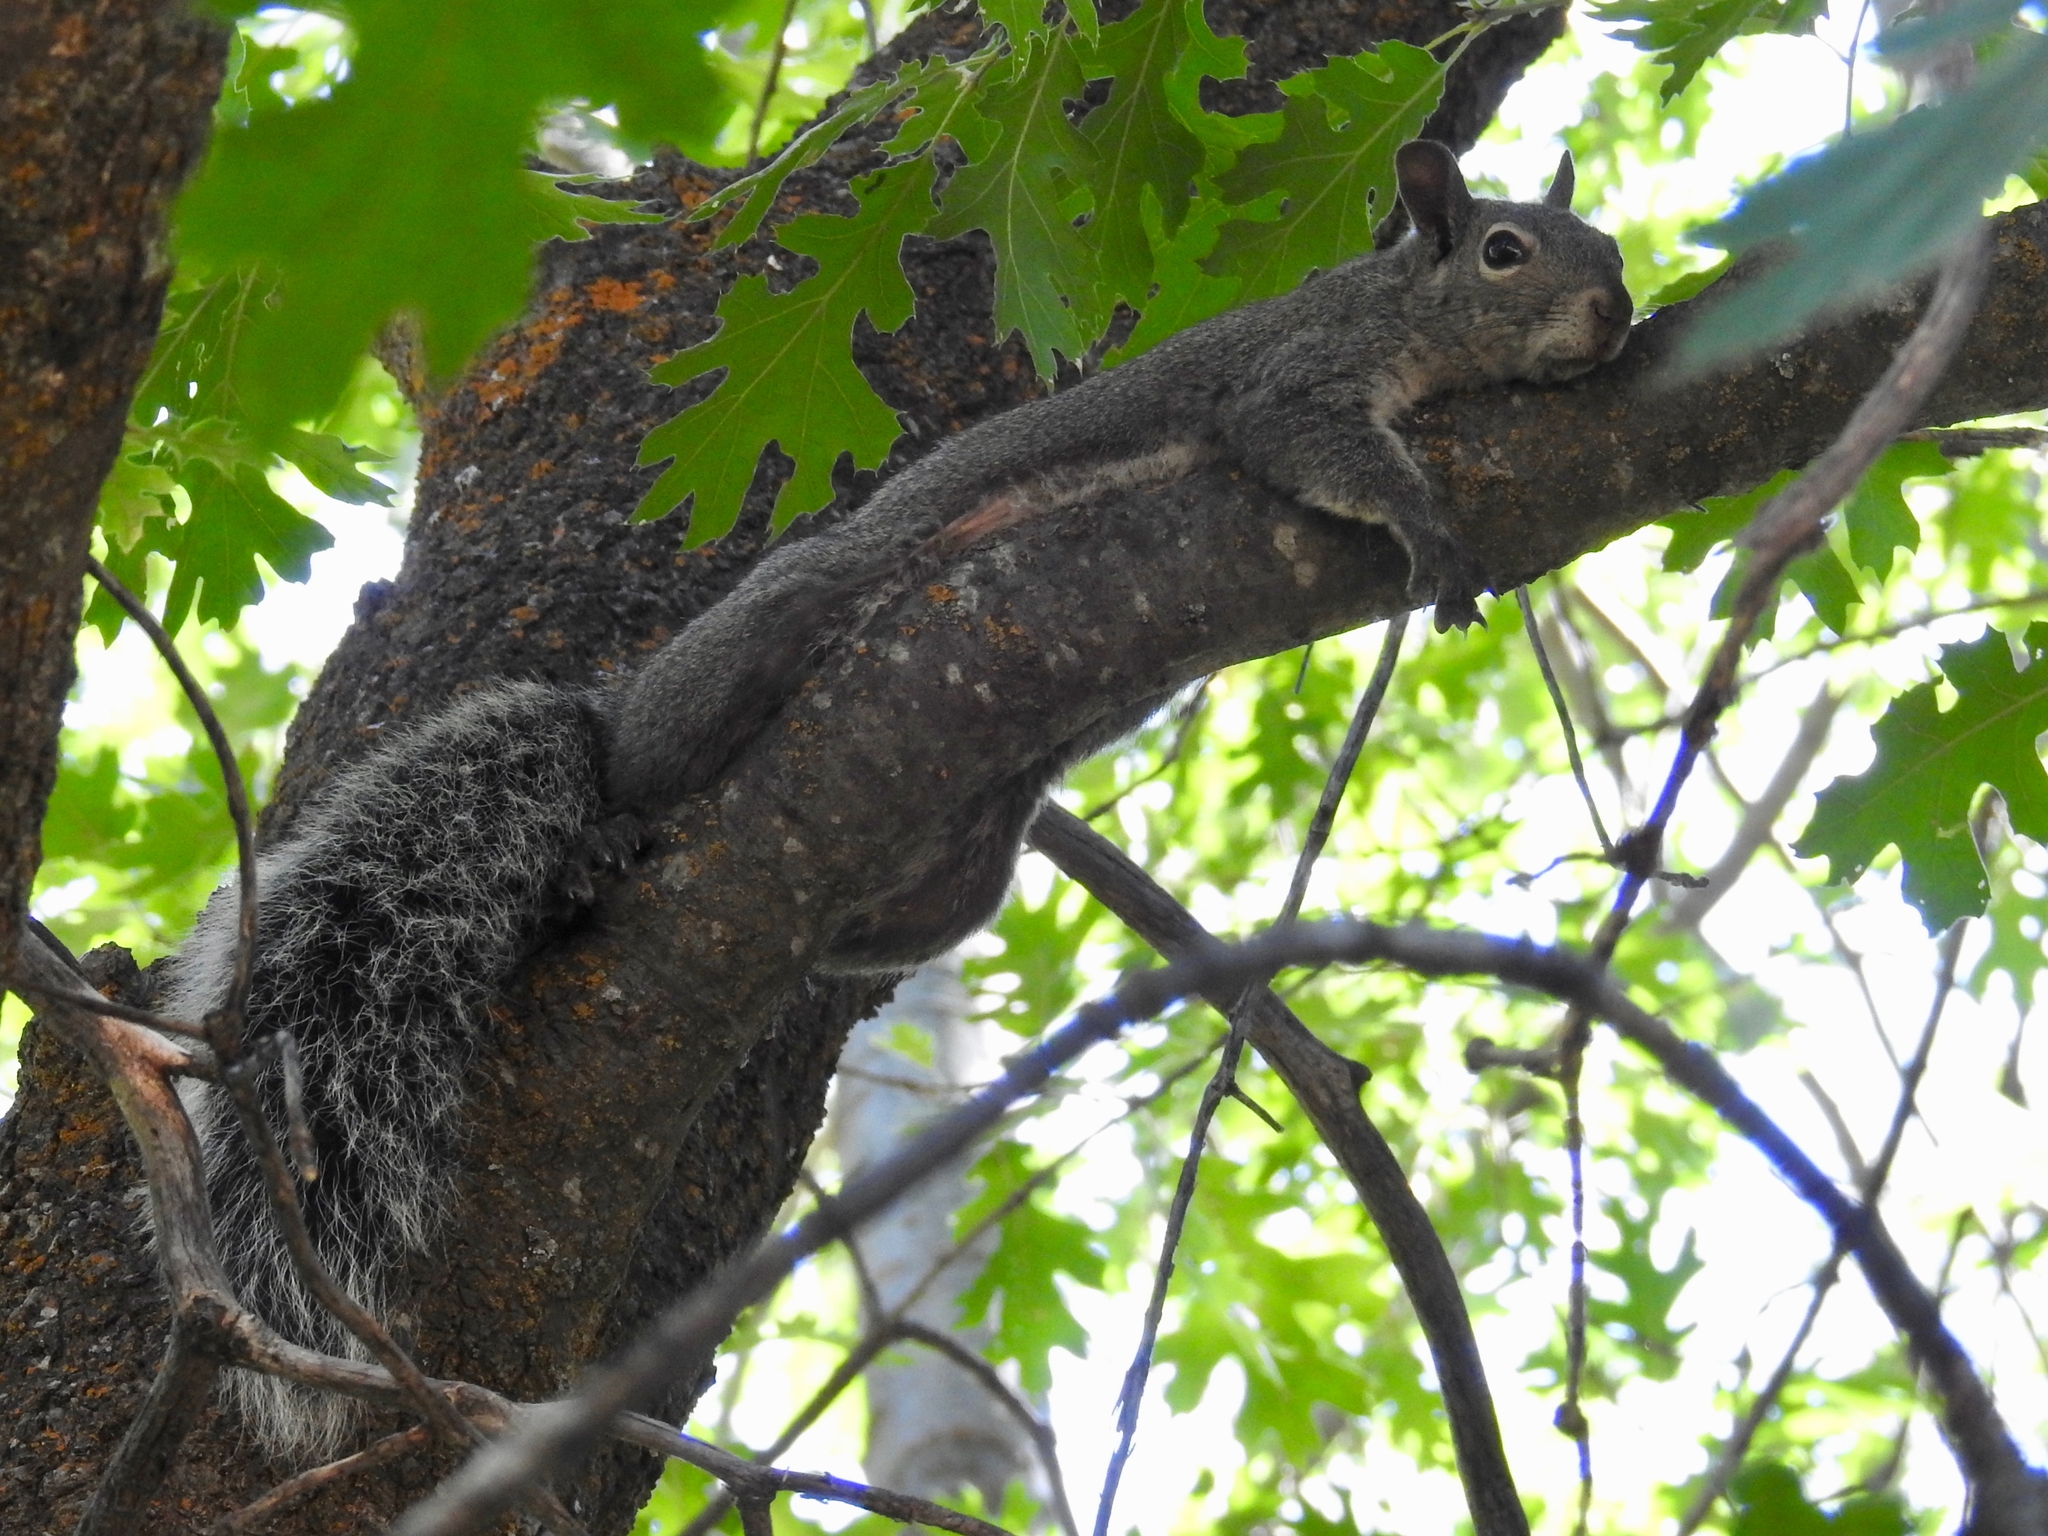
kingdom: Animalia
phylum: Chordata
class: Mammalia
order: Rodentia
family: Sciuridae
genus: Sciurus
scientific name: Sciurus griseus
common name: Western gray squirrel
